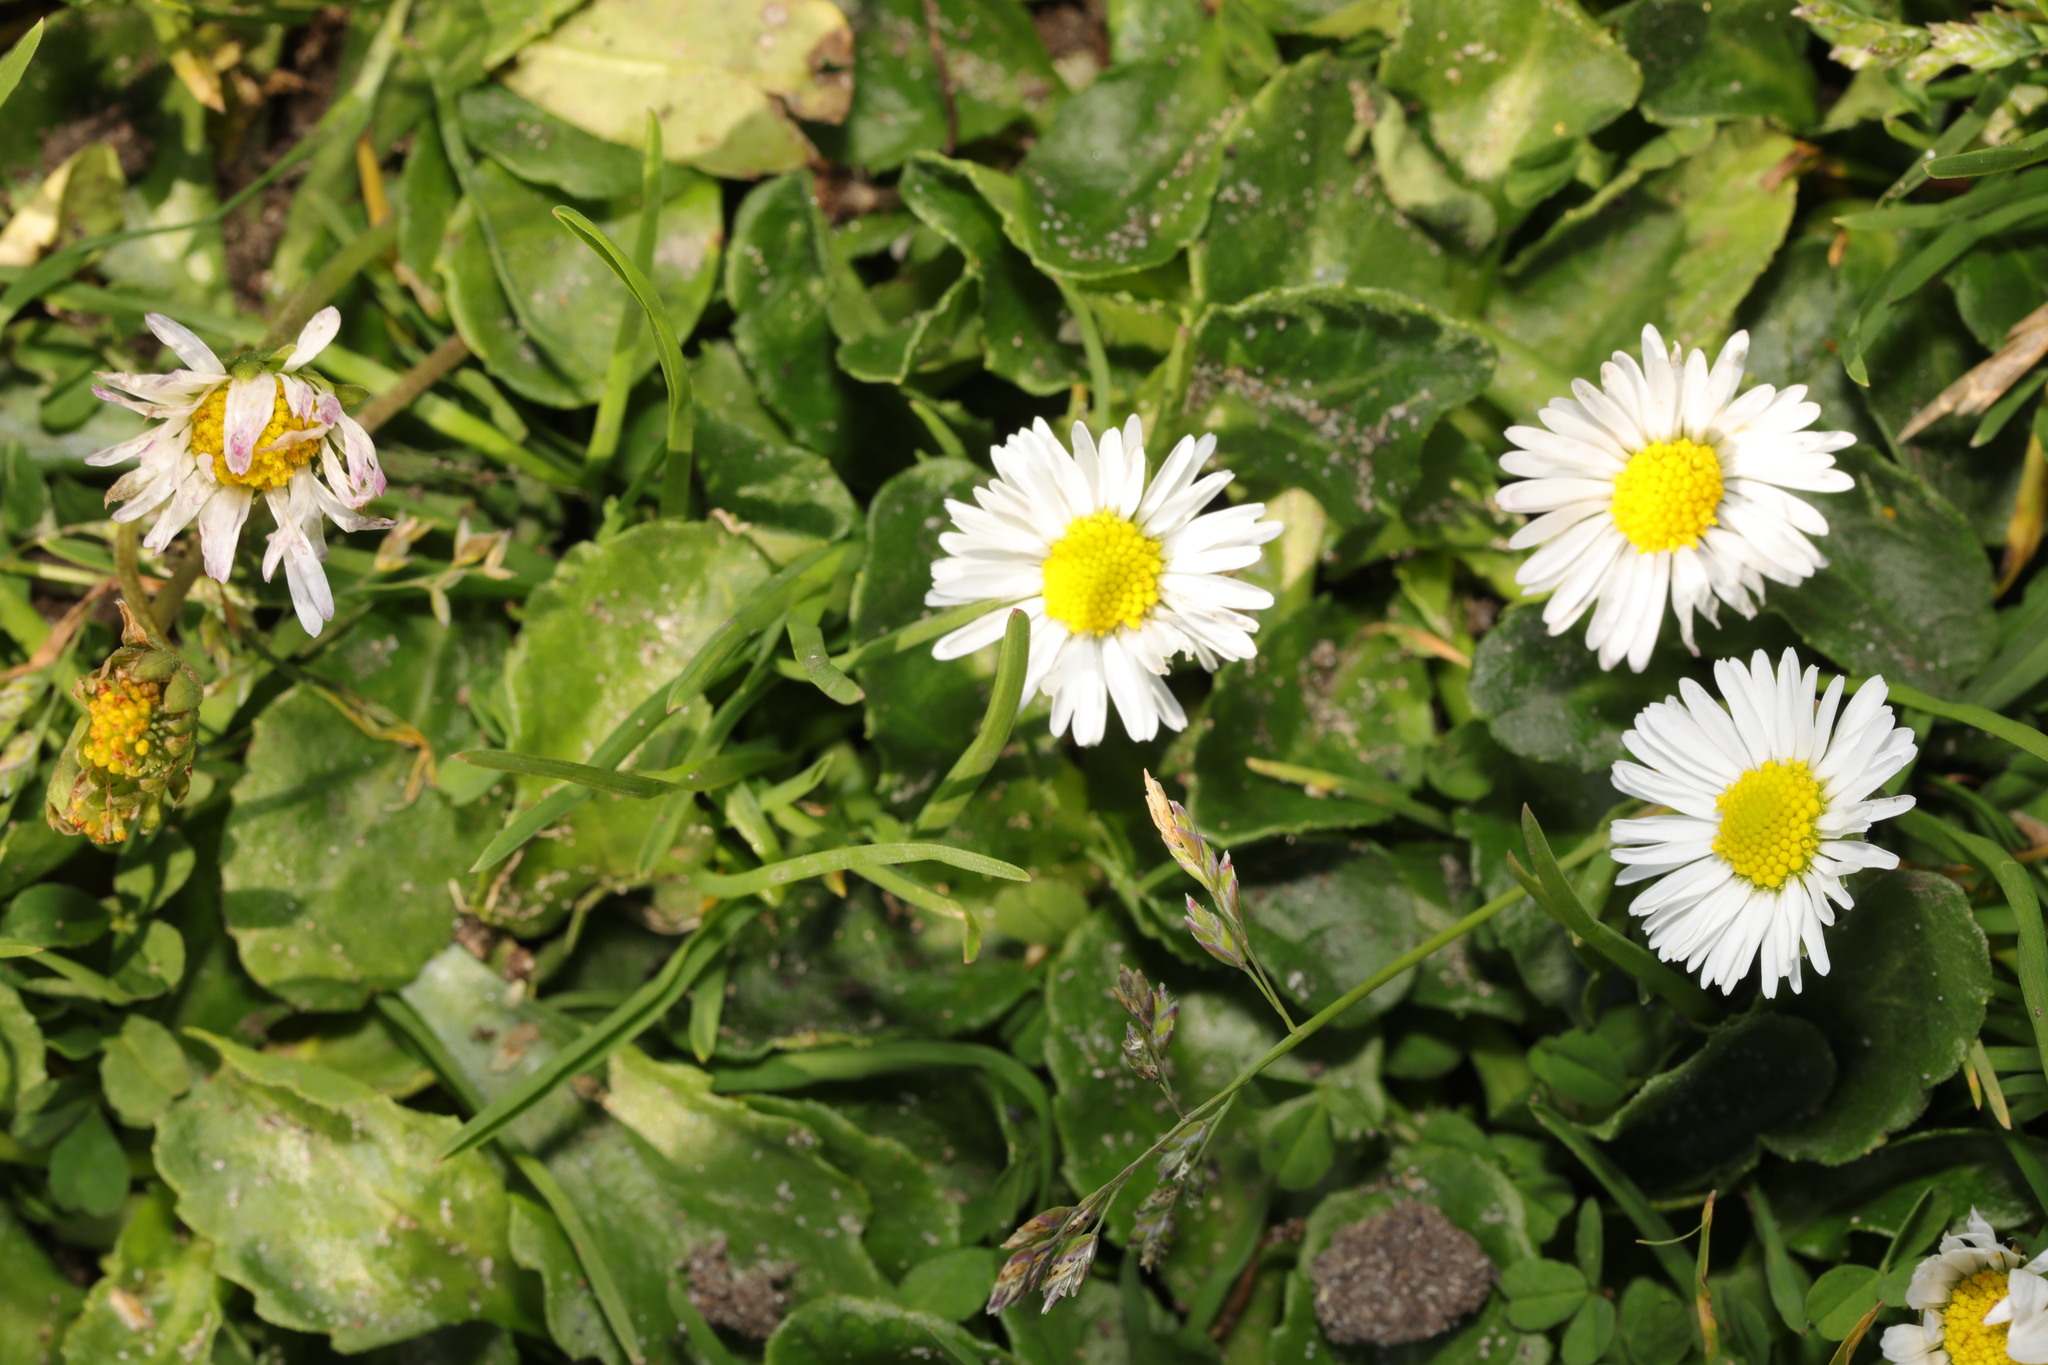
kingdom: Plantae
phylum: Tracheophyta
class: Magnoliopsida
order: Asterales
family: Asteraceae
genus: Bellis
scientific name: Bellis perennis
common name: Lawndaisy
